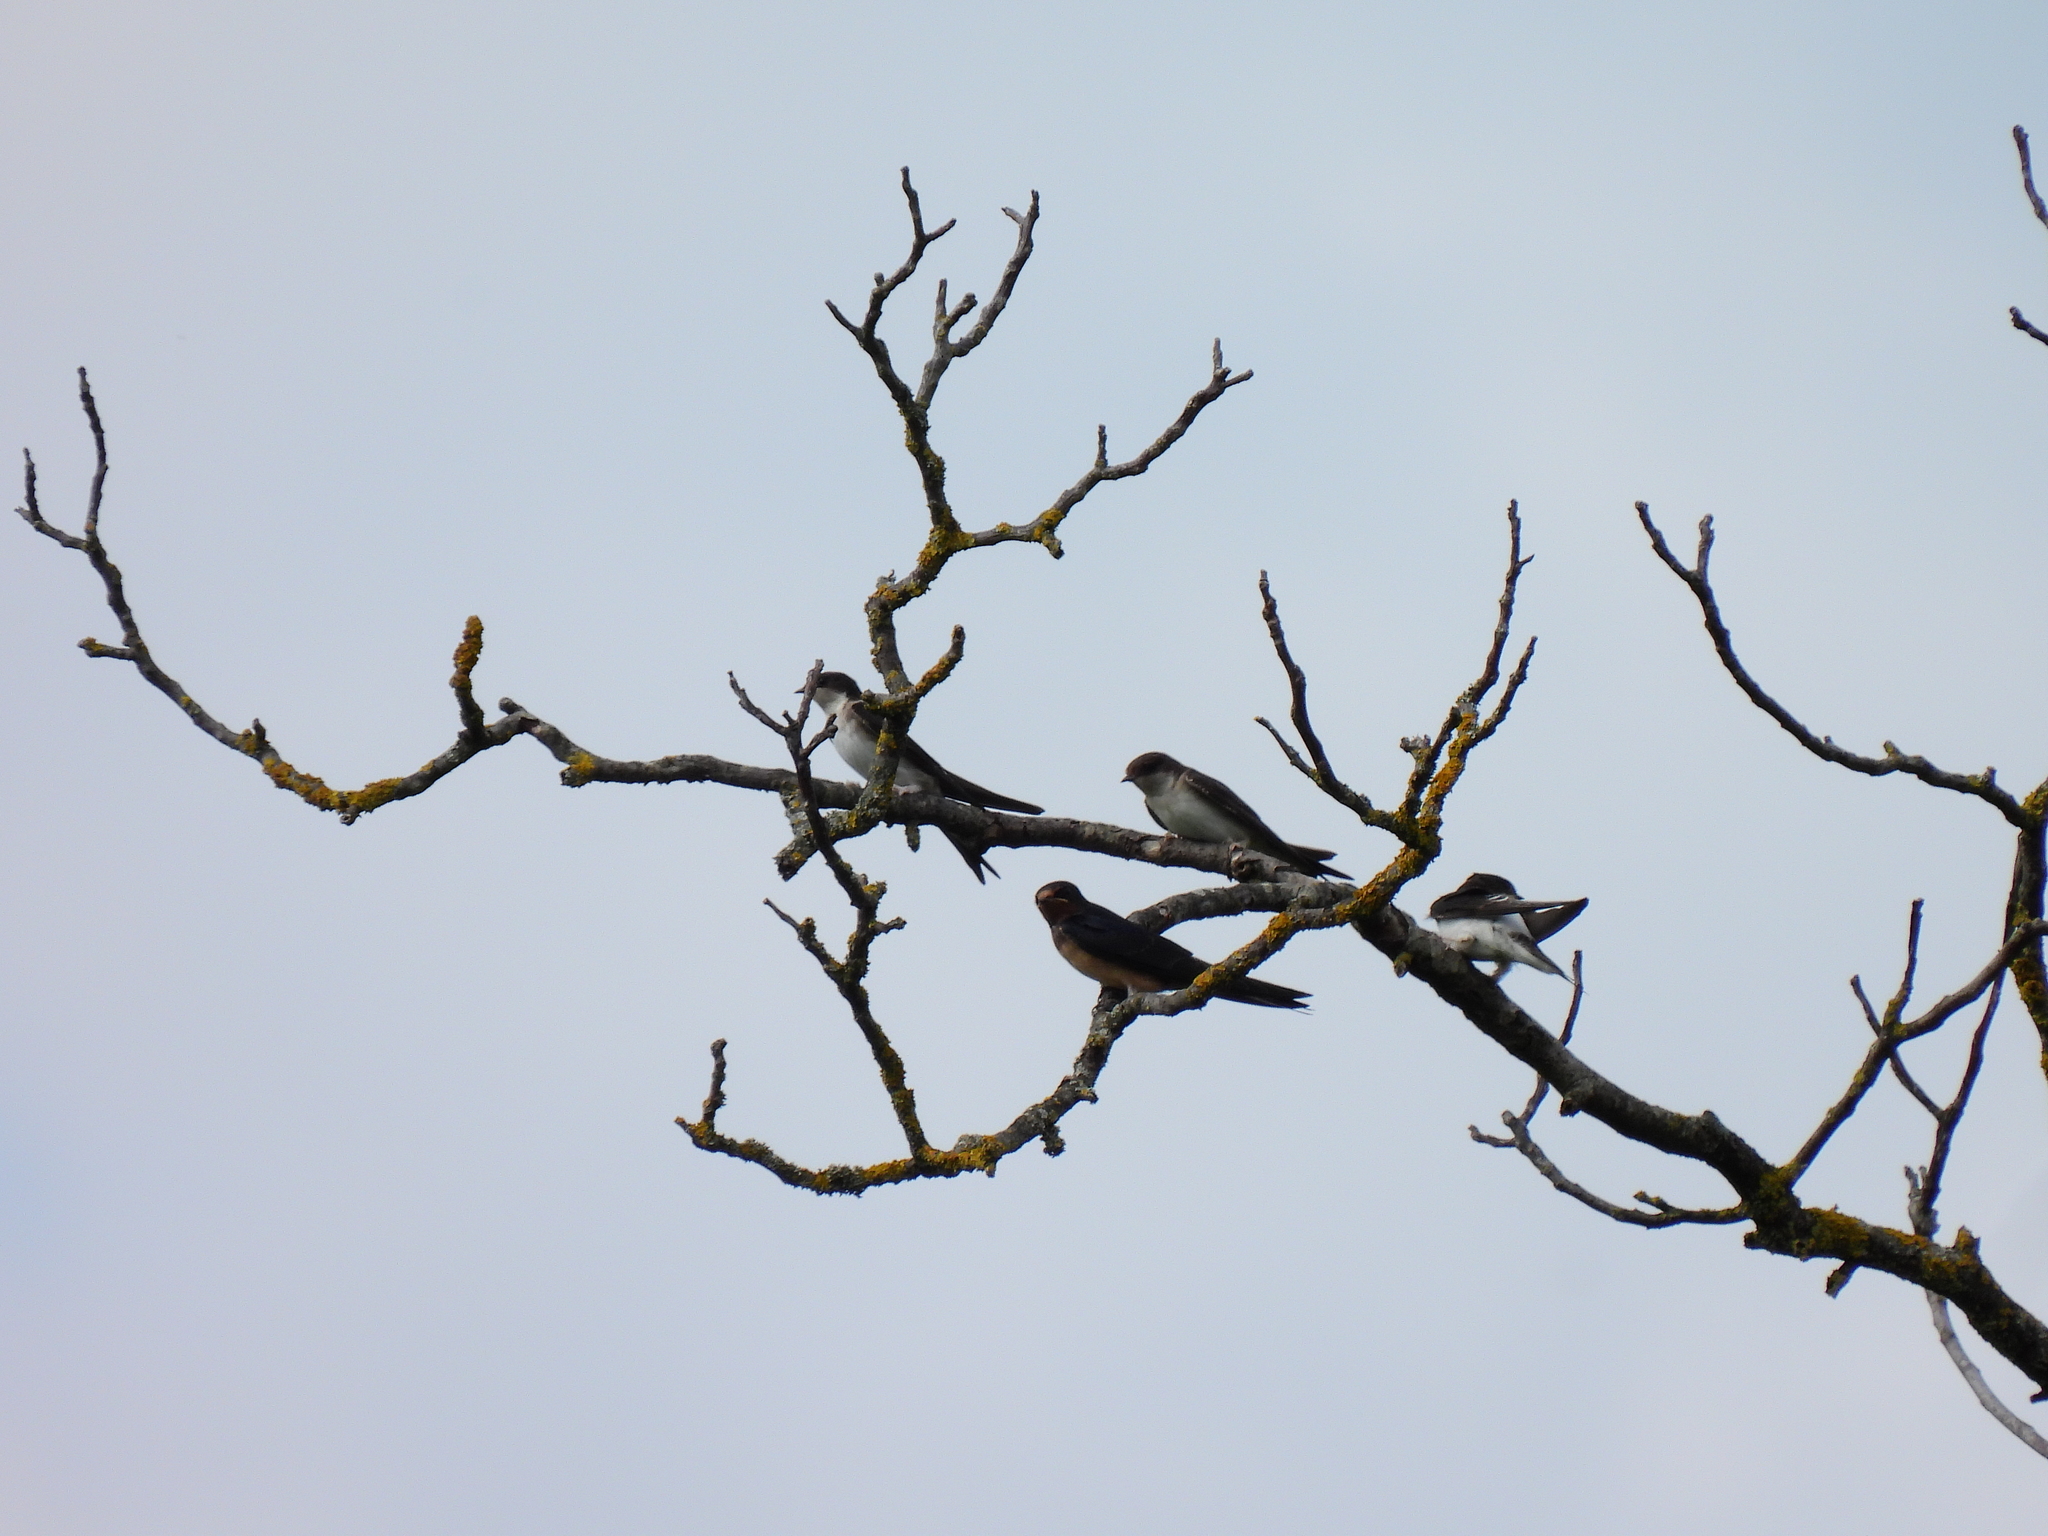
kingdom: Animalia
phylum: Chordata
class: Aves
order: Passeriformes
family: Hirundinidae
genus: Delichon
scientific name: Delichon urbicum
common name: Common house martin
